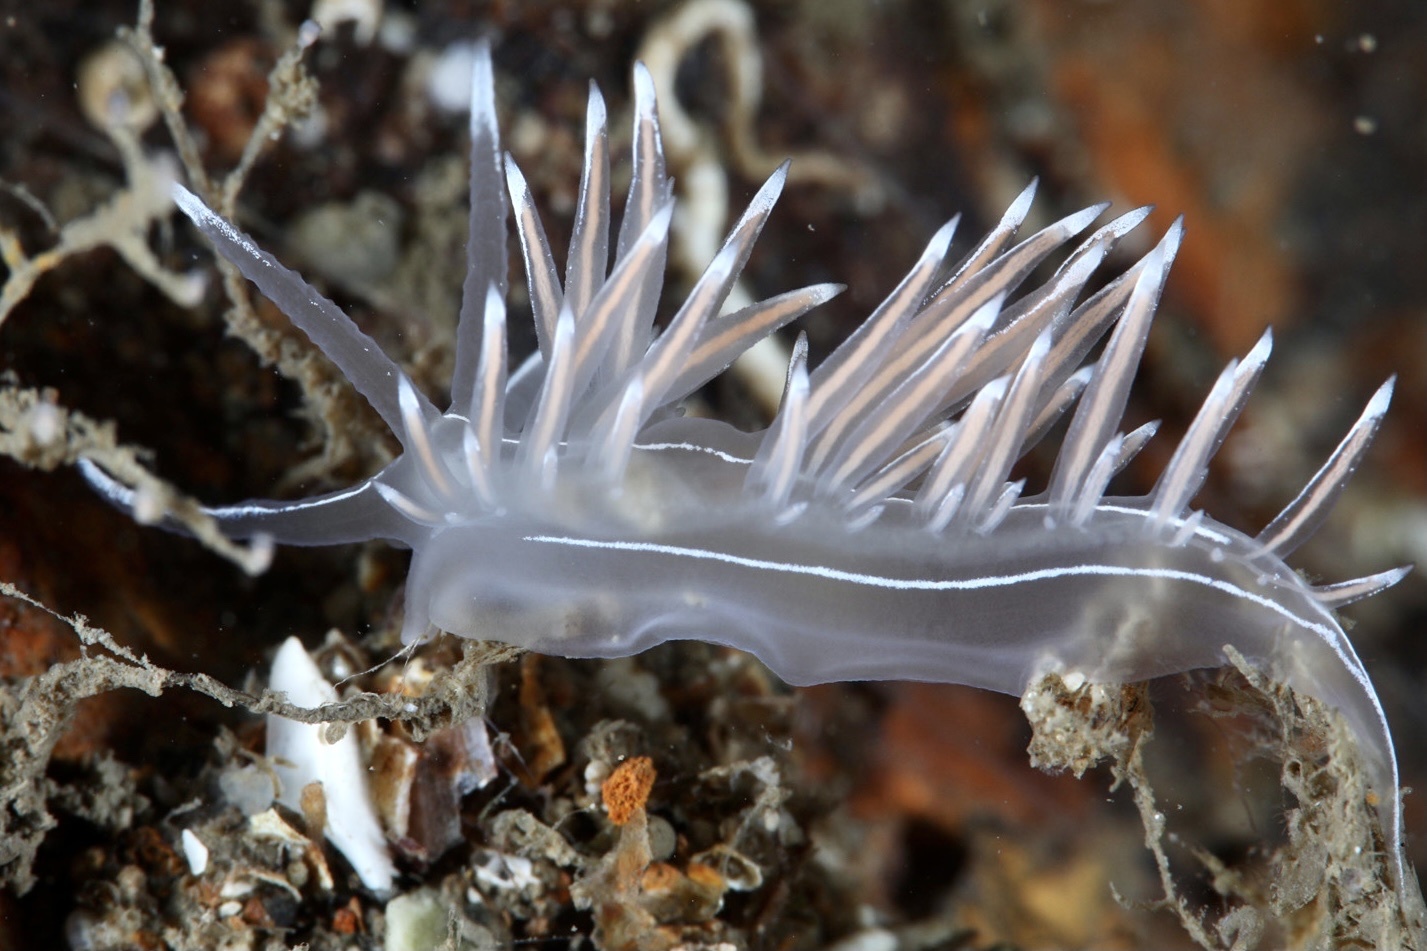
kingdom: Animalia
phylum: Mollusca
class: Gastropoda
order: Nudibranchia
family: Coryphellidae
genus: Coryphella
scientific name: Coryphella lineata
